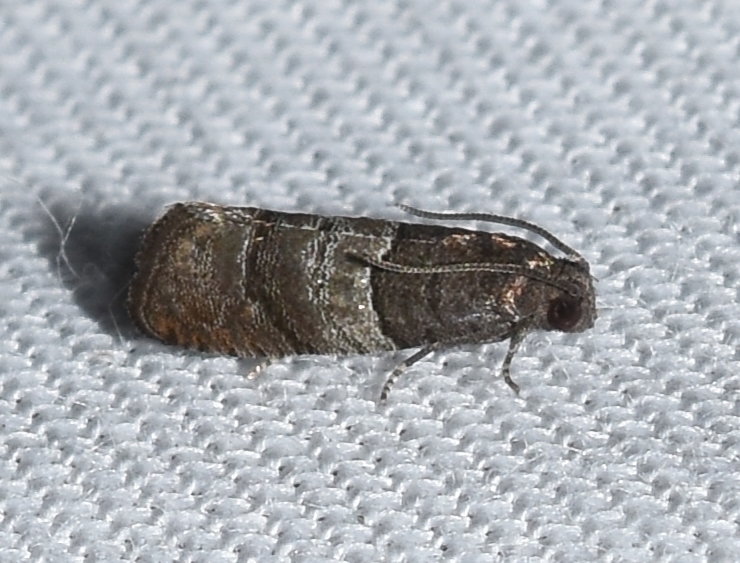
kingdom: Animalia
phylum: Arthropoda
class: Insecta
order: Lepidoptera
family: Tortricidae
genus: Larisa
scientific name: Larisa subsolana
